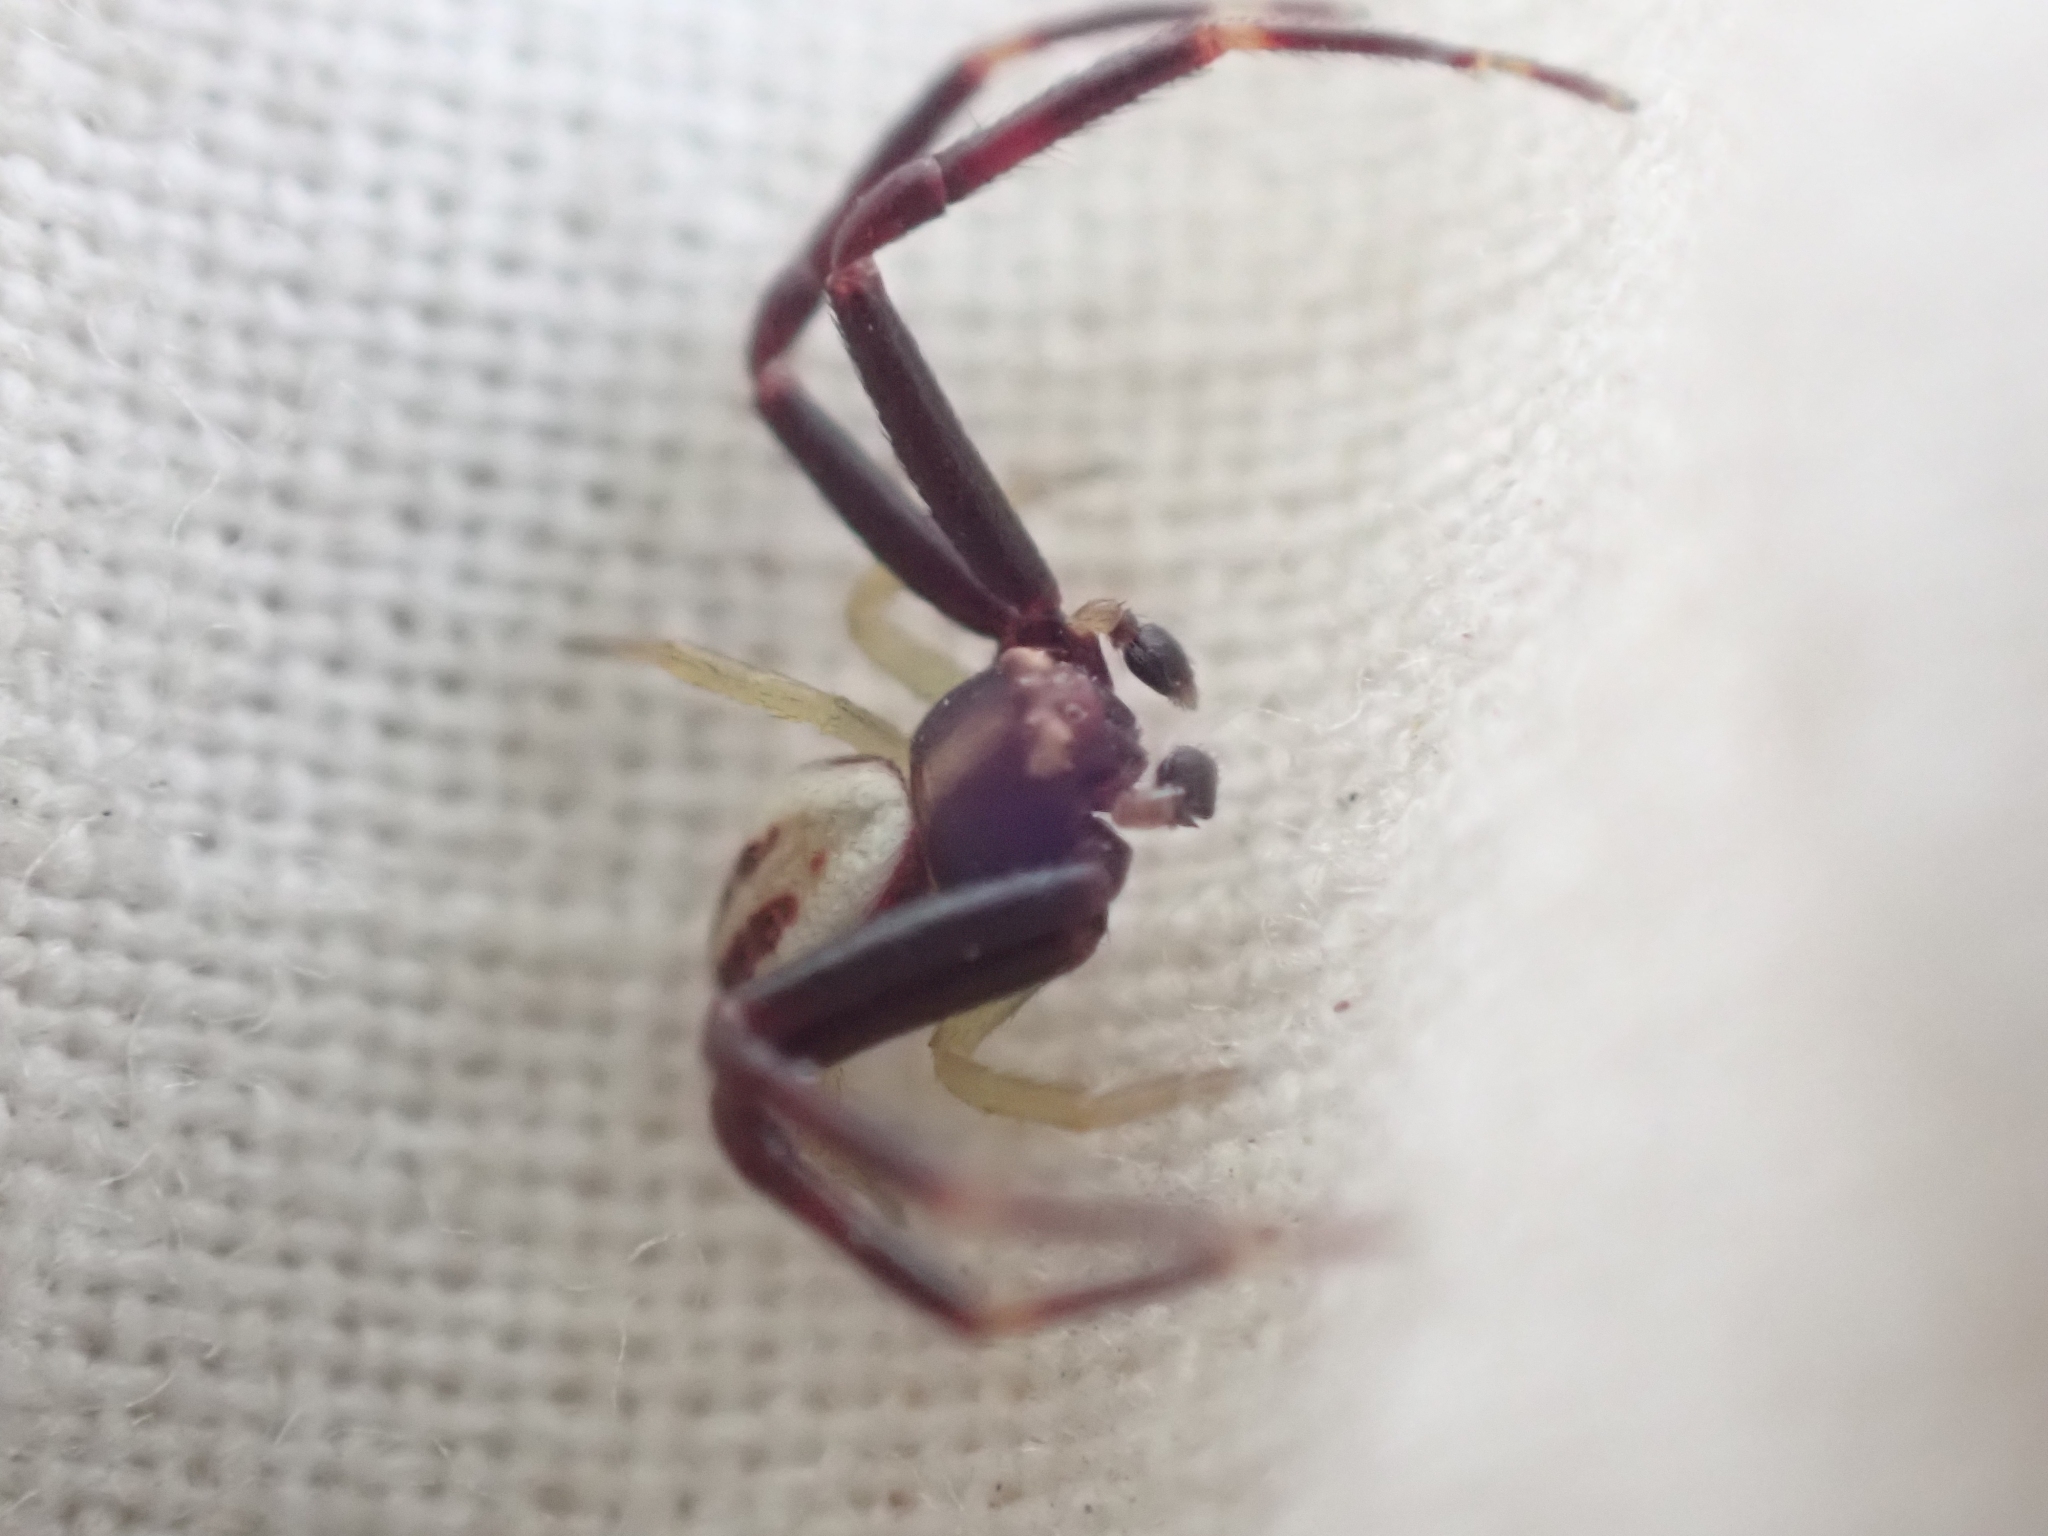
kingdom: Animalia
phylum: Arthropoda
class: Arachnida
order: Araneae
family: Thomisidae
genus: Misumena
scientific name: Misumena vatia
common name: Goldenrod crab spider
